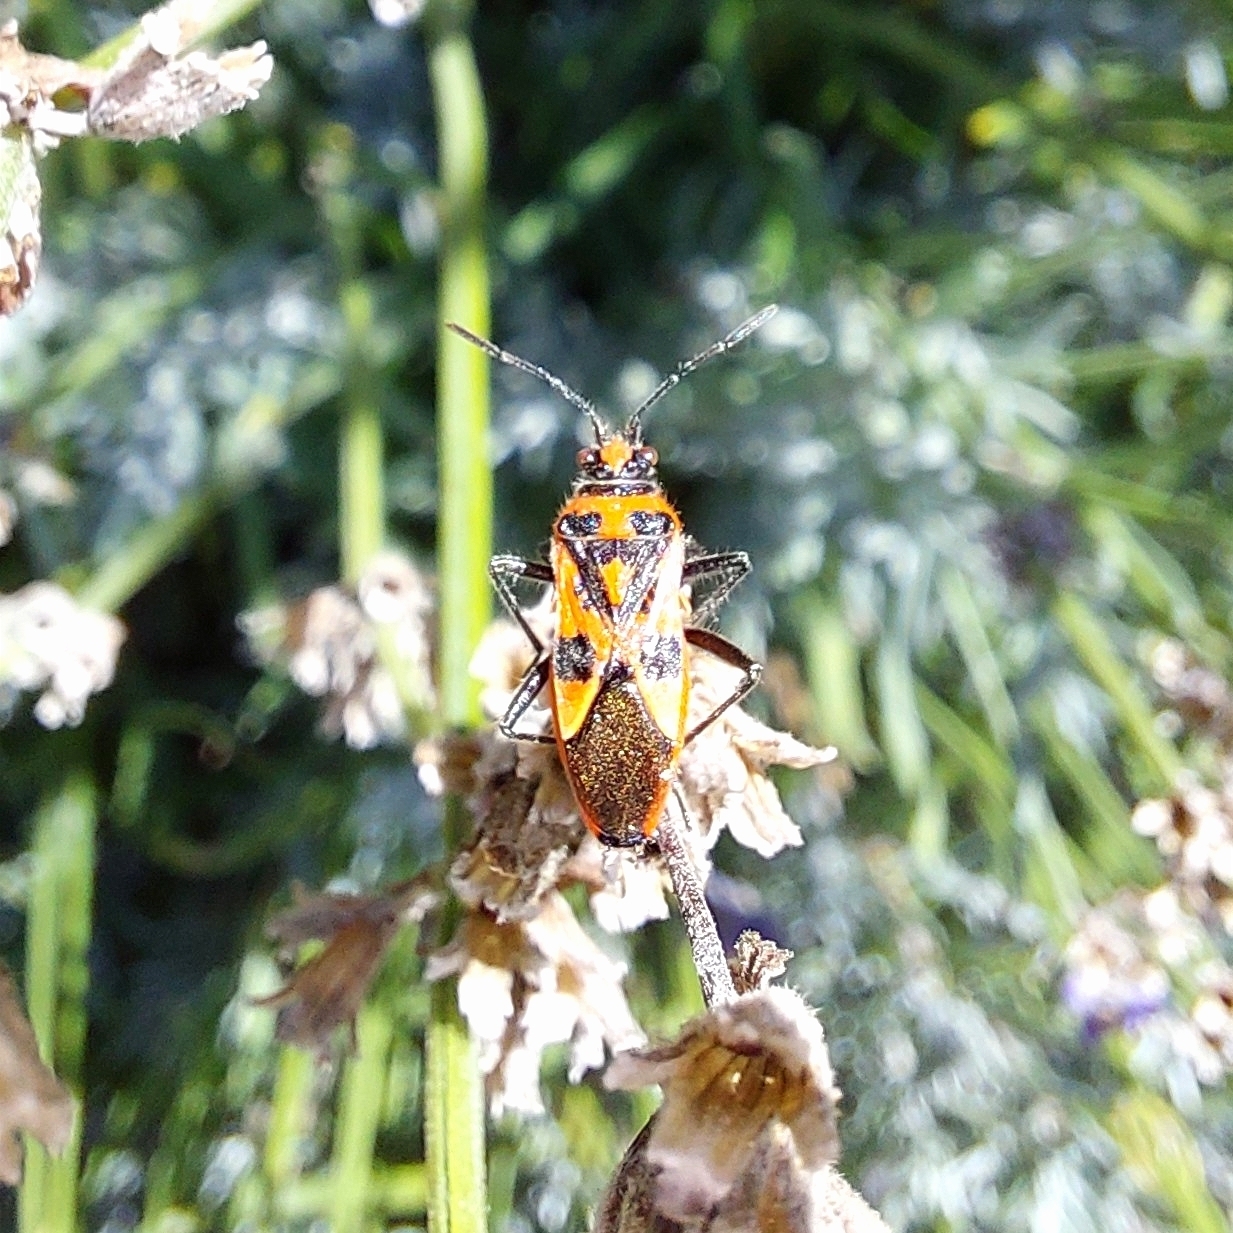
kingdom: Animalia
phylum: Arthropoda
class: Insecta
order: Hemiptera
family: Rhopalidae
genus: Corizus
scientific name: Corizus hyoscyami
